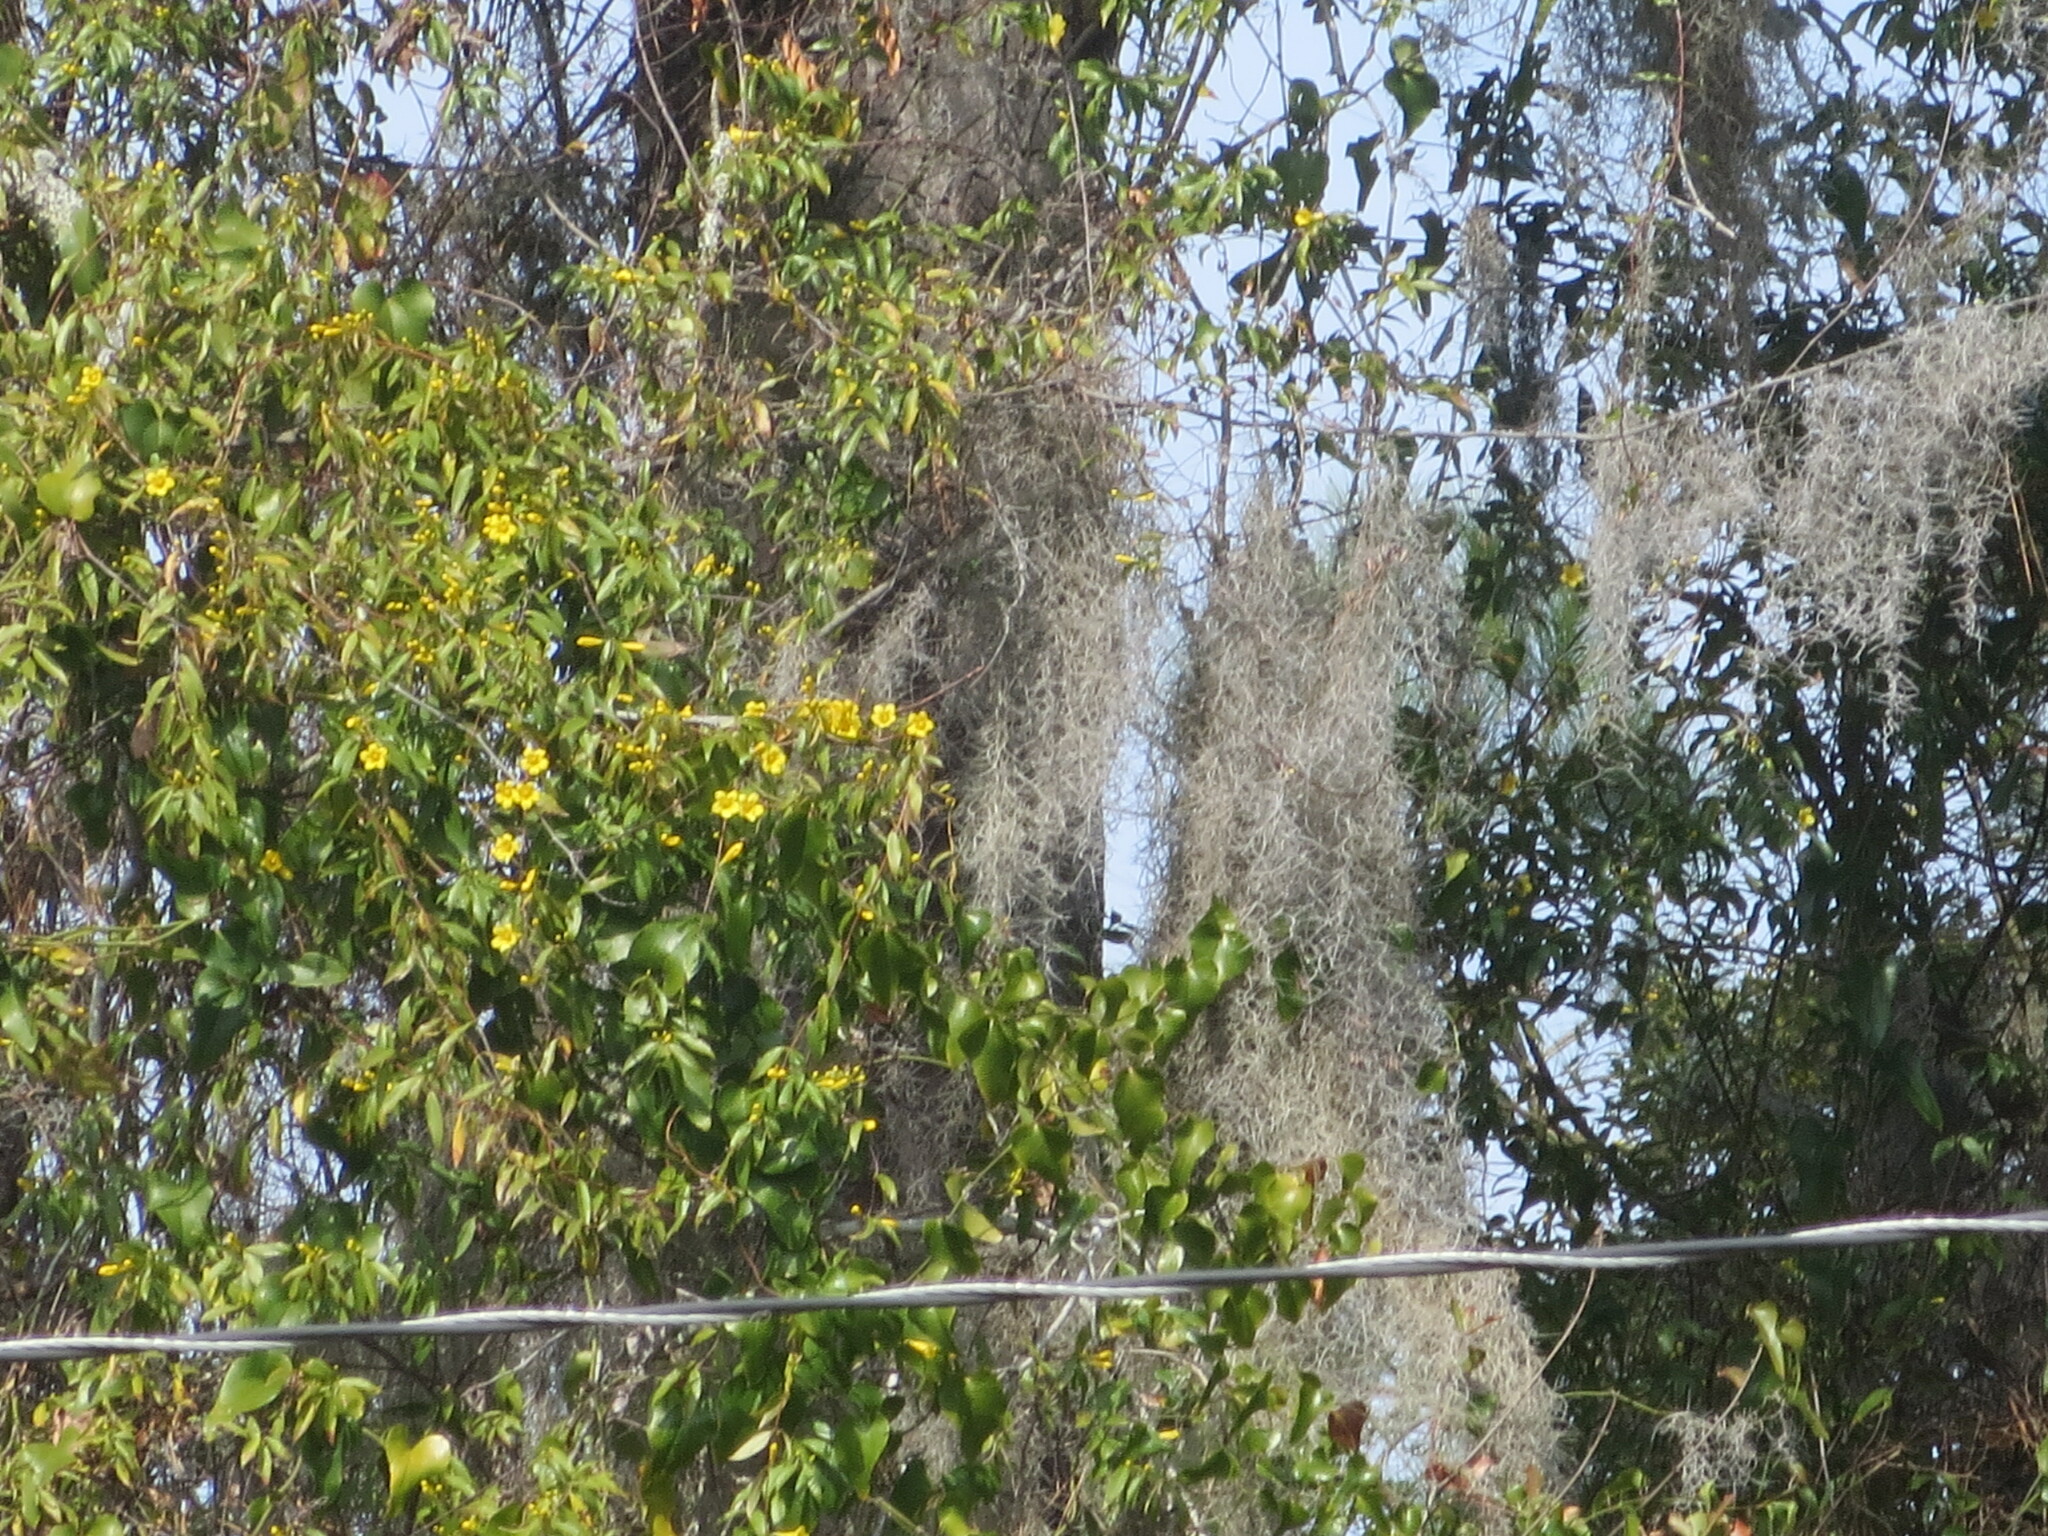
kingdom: Plantae
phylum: Tracheophyta
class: Magnoliopsida
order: Gentianales
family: Gelsemiaceae
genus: Gelsemium
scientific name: Gelsemium sempervirens
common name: Carolina-jasmine
